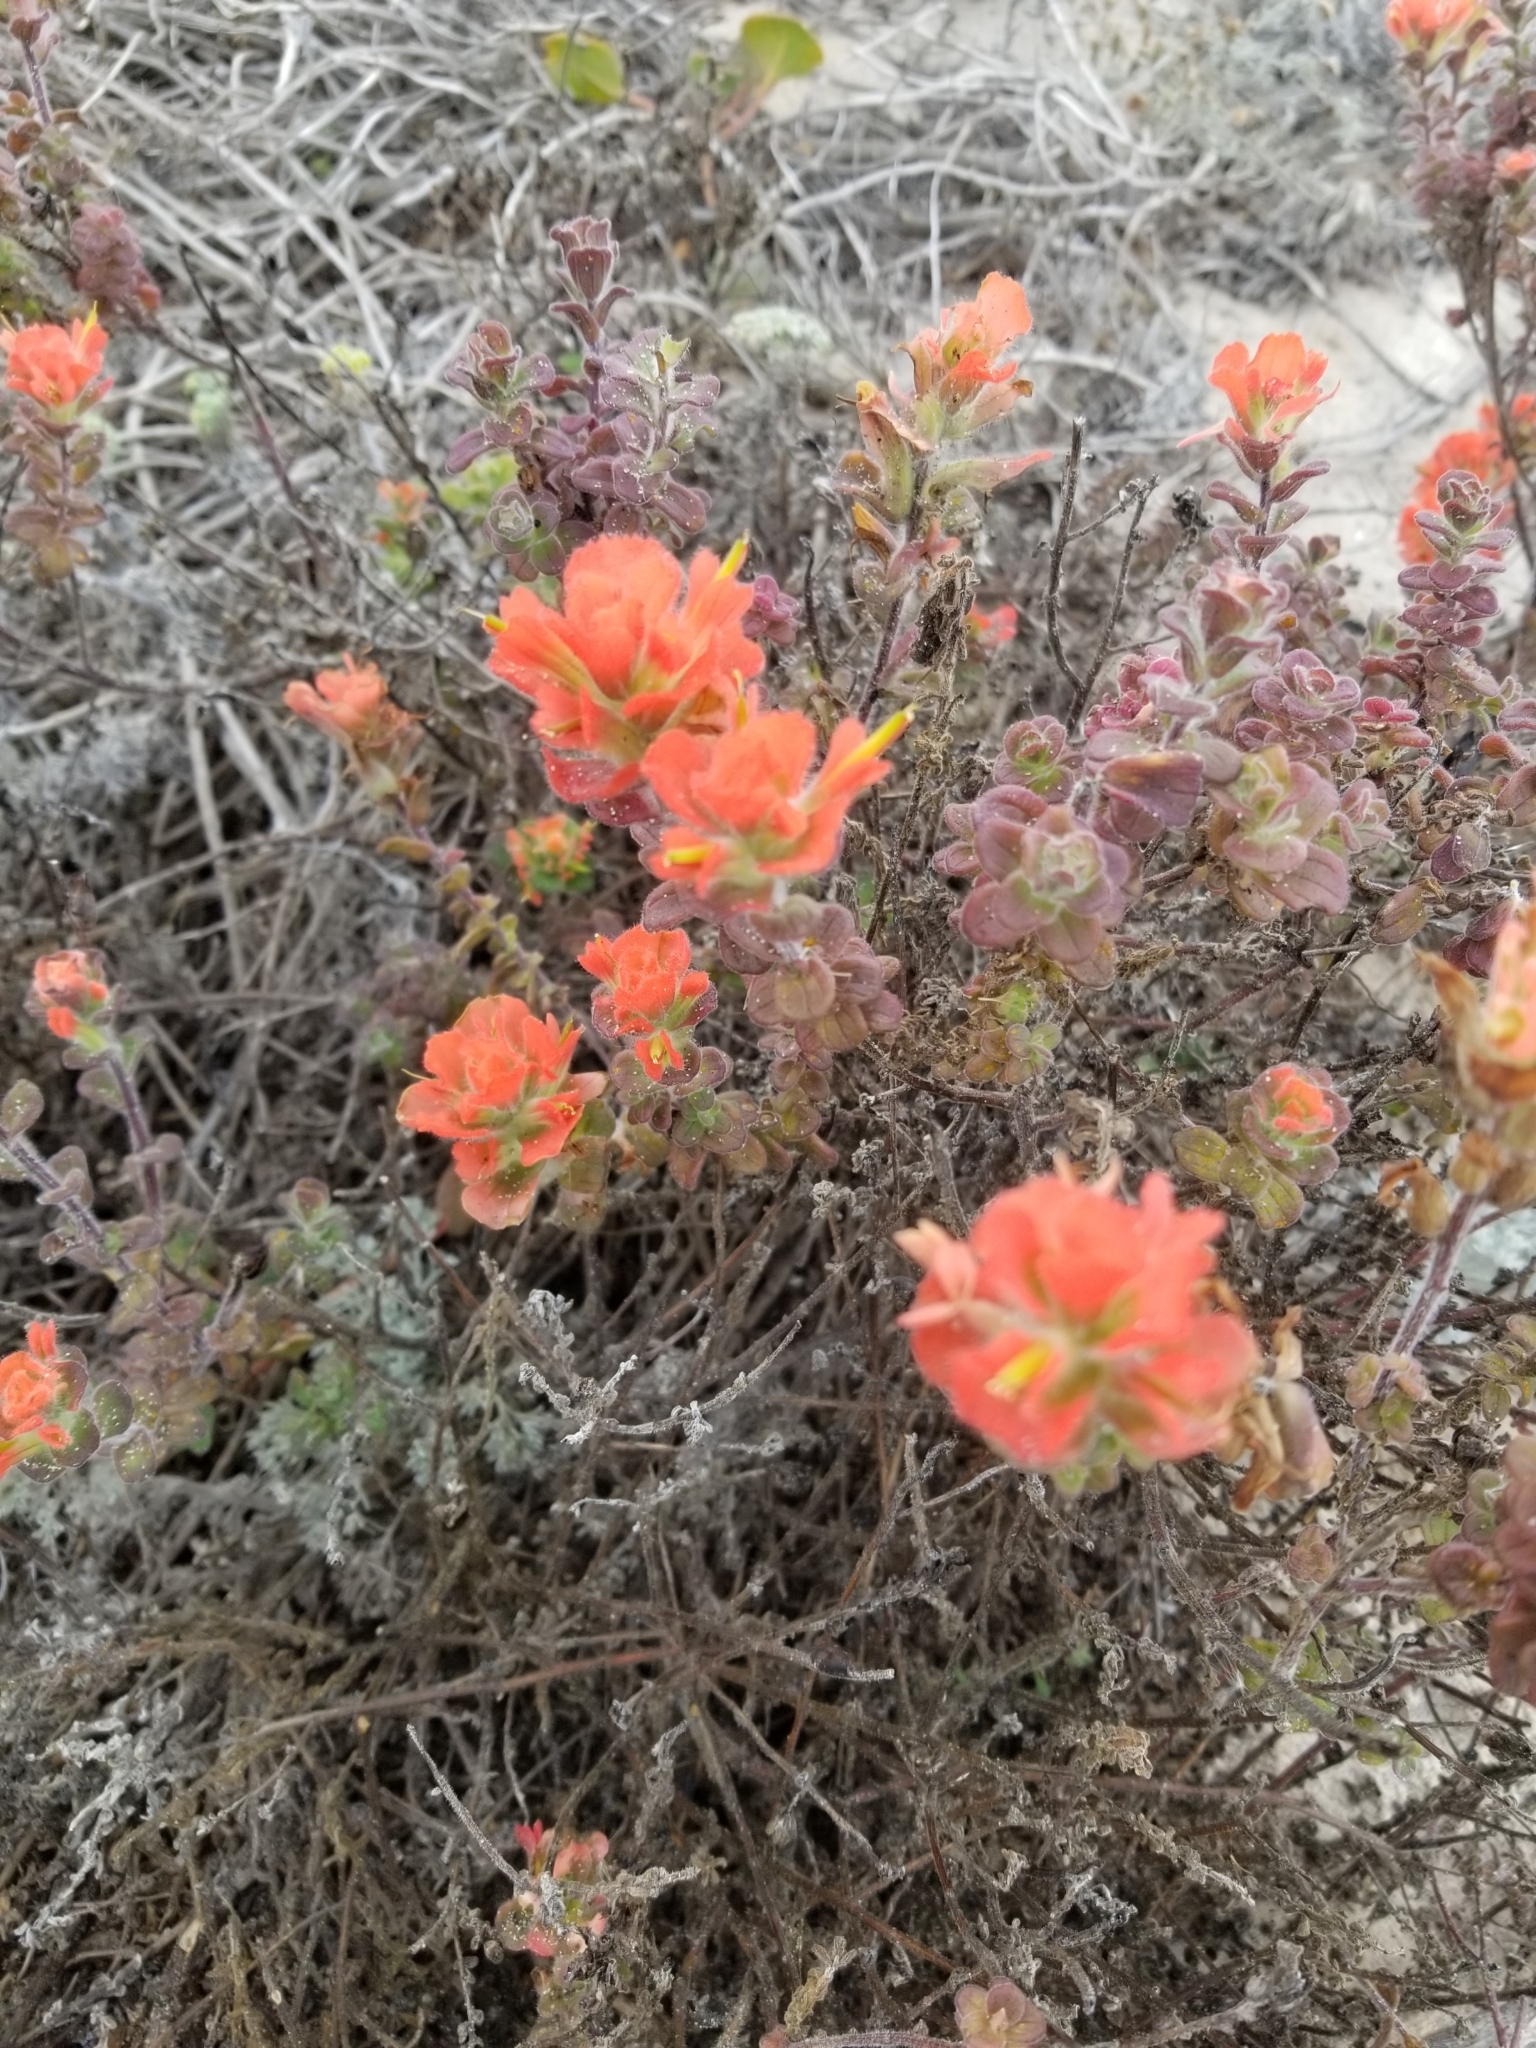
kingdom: Plantae
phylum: Tracheophyta
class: Magnoliopsida
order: Lamiales
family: Orobanchaceae
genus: Castilleja
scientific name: Castilleja latifolia
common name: Monterey indian paintbrush
